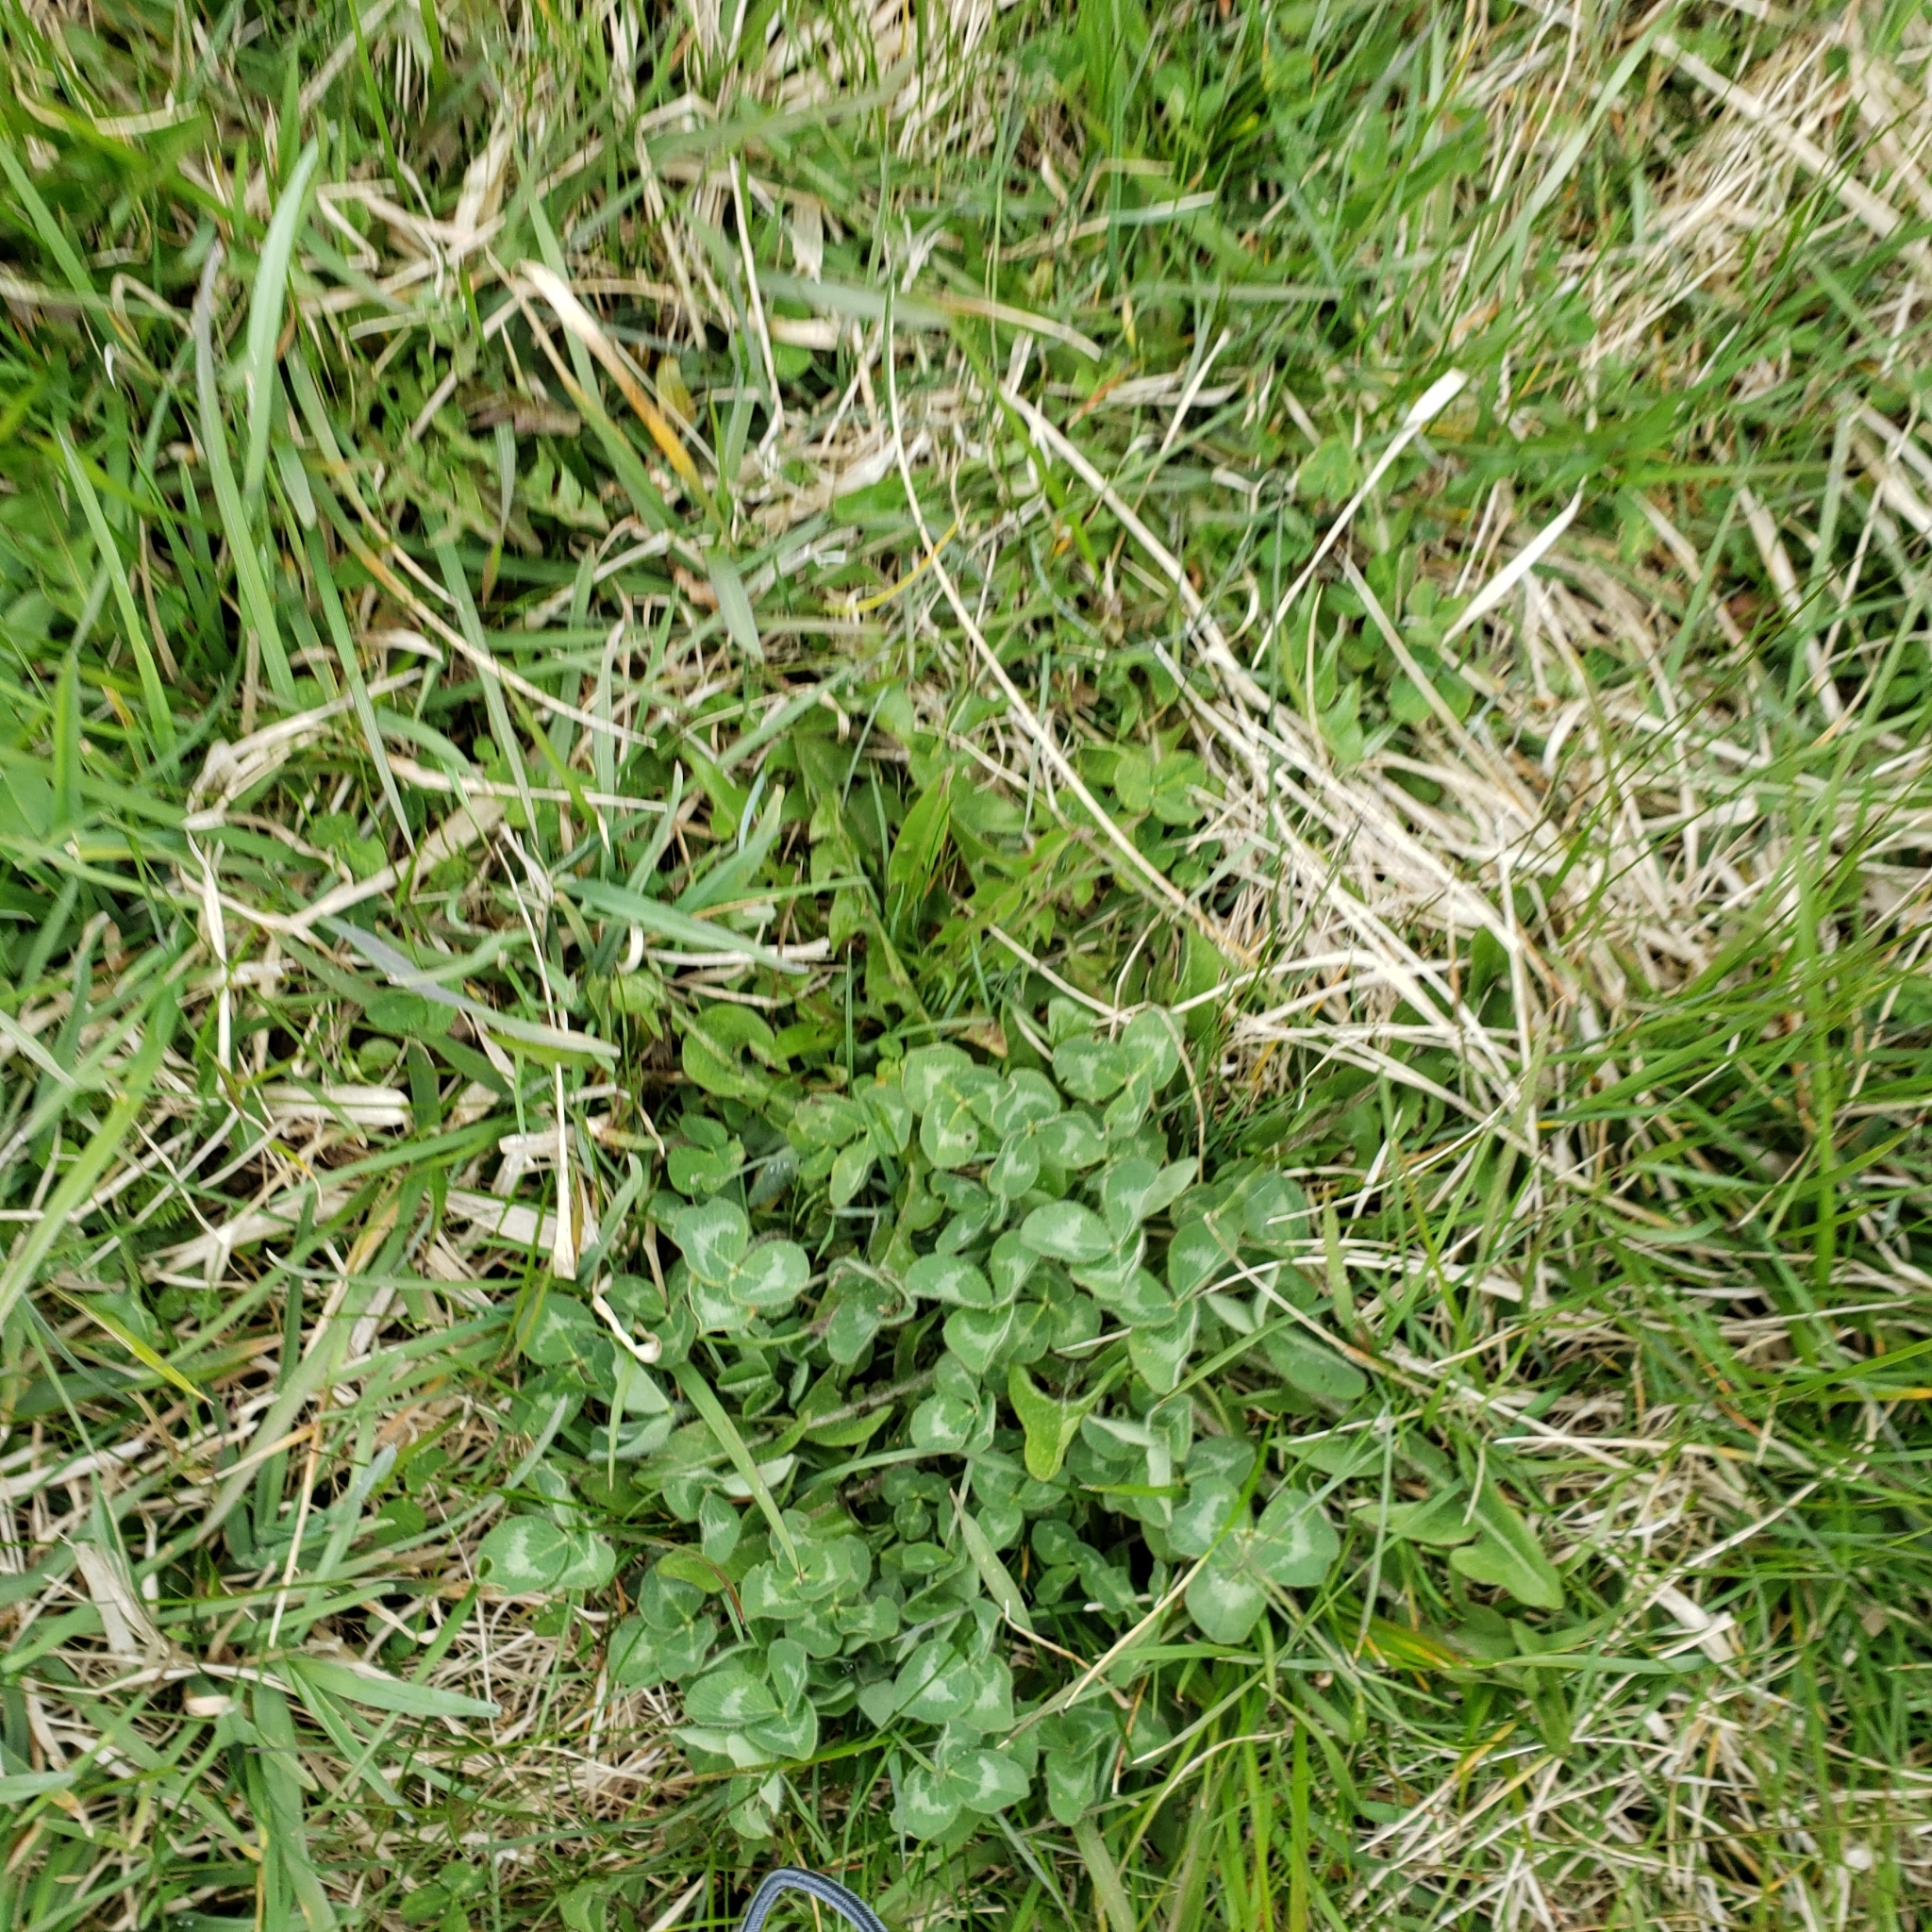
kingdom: Plantae
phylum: Tracheophyta
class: Magnoliopsida
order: Fabales
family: Fabaceae
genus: Trifolium
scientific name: Trifolium pratense
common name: Red clover
